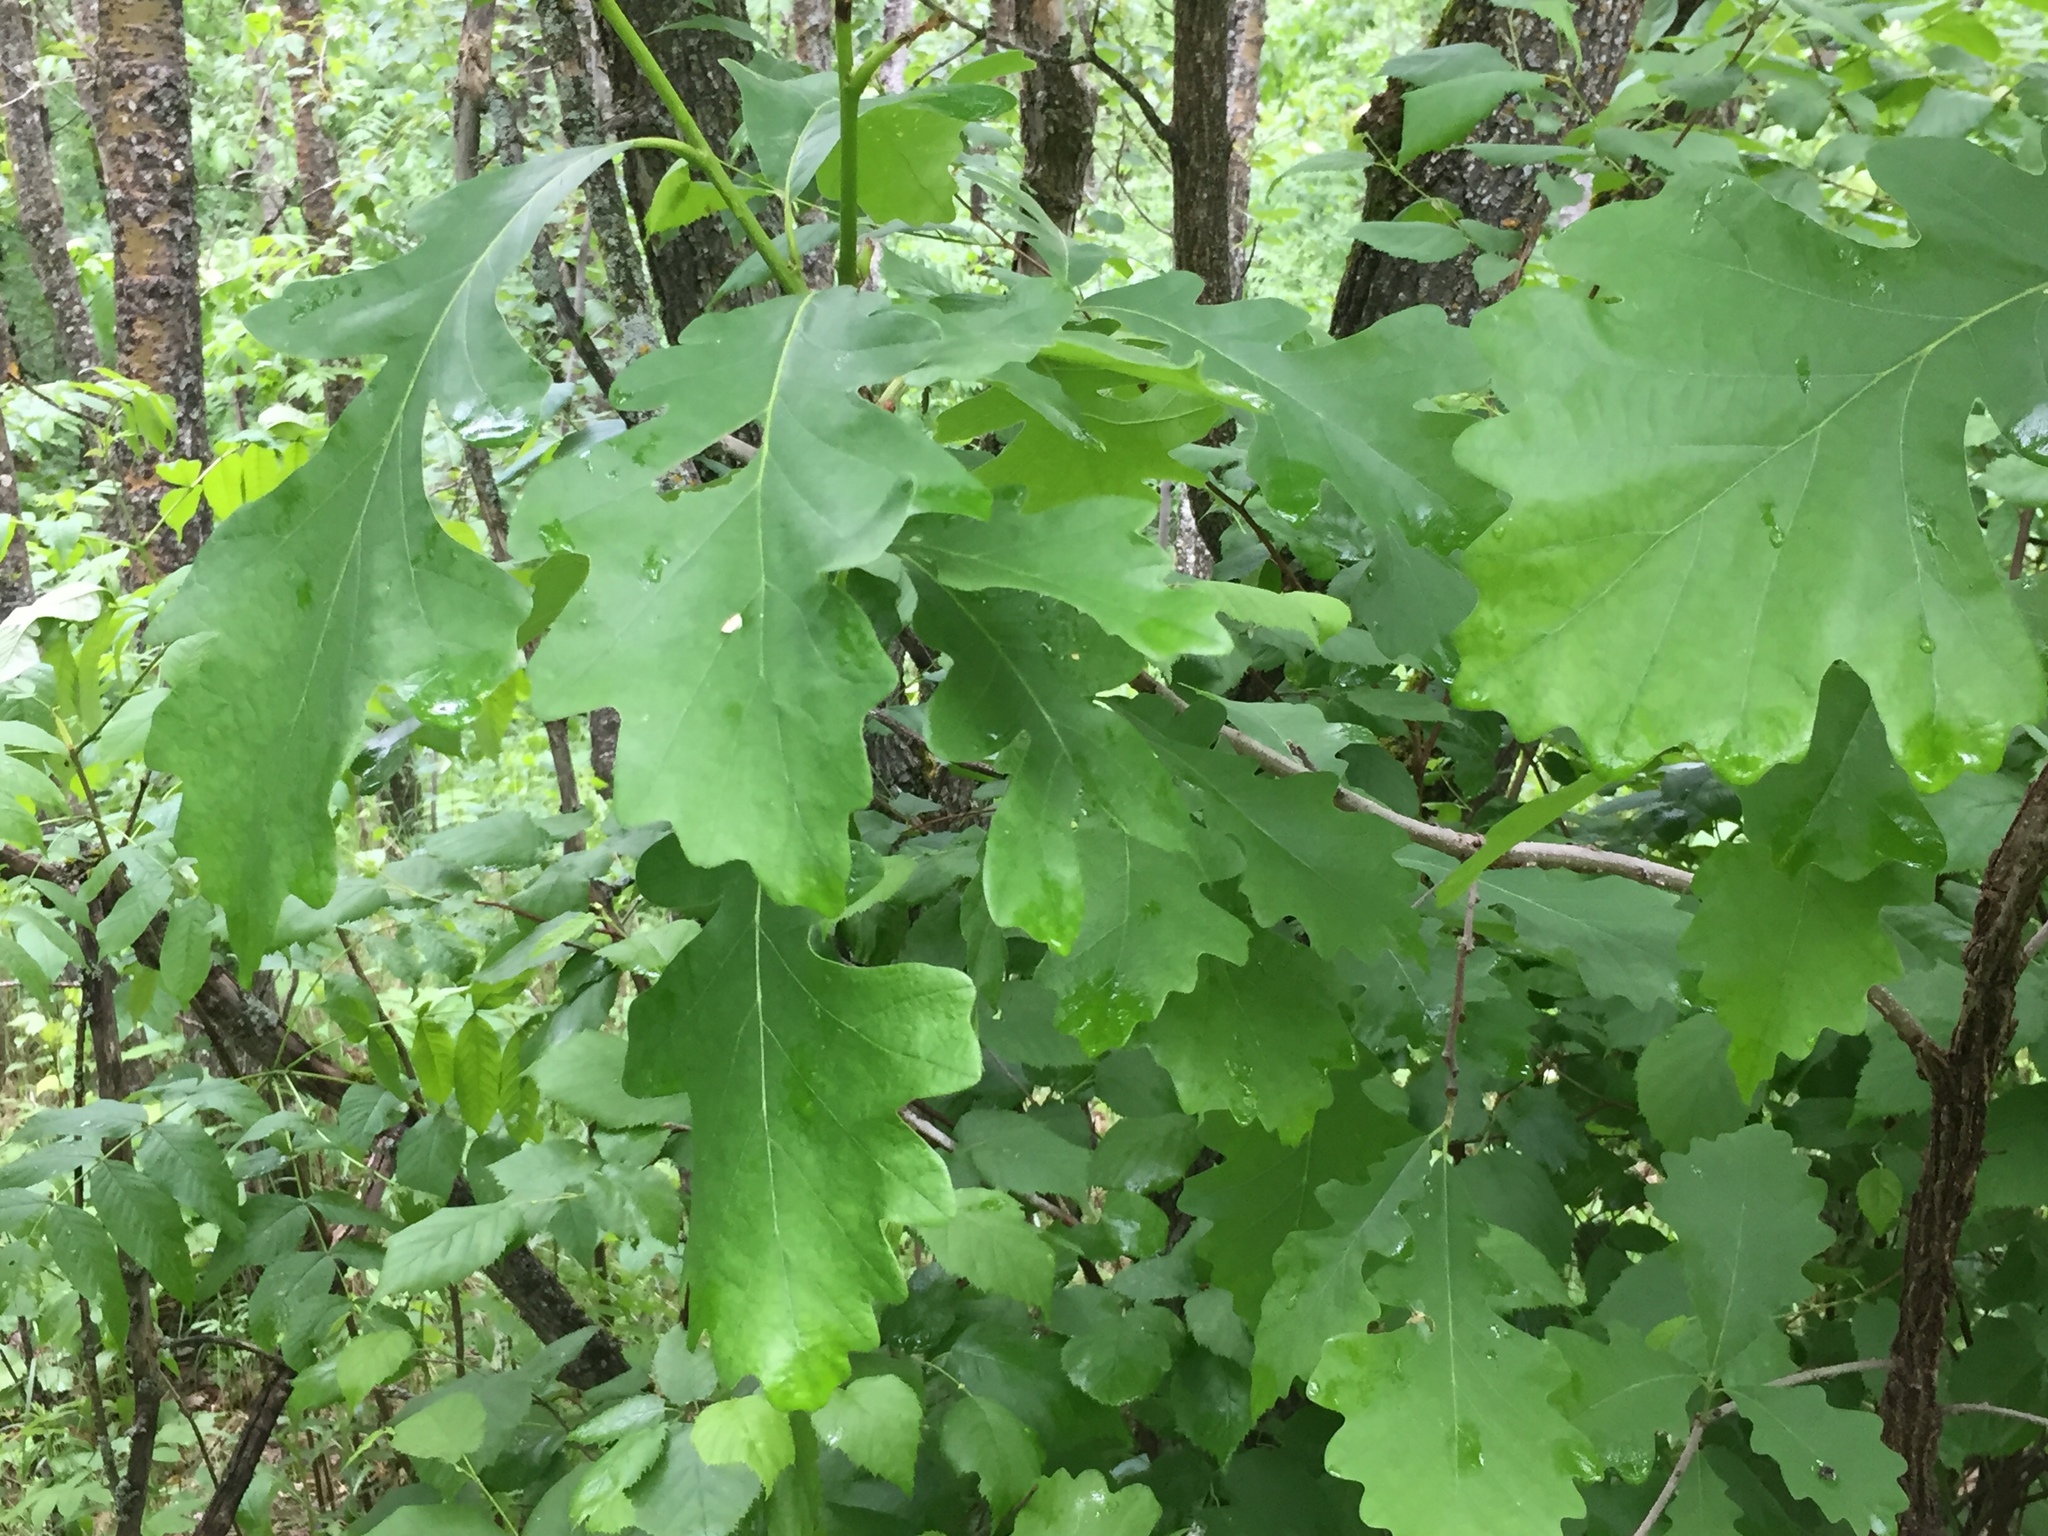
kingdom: Plantae
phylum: Tracheophyta
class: Magnoliopsida
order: Fagales
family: Fagaceae
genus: Quercus
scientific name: Quercus macrocarpa
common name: Bur oak
